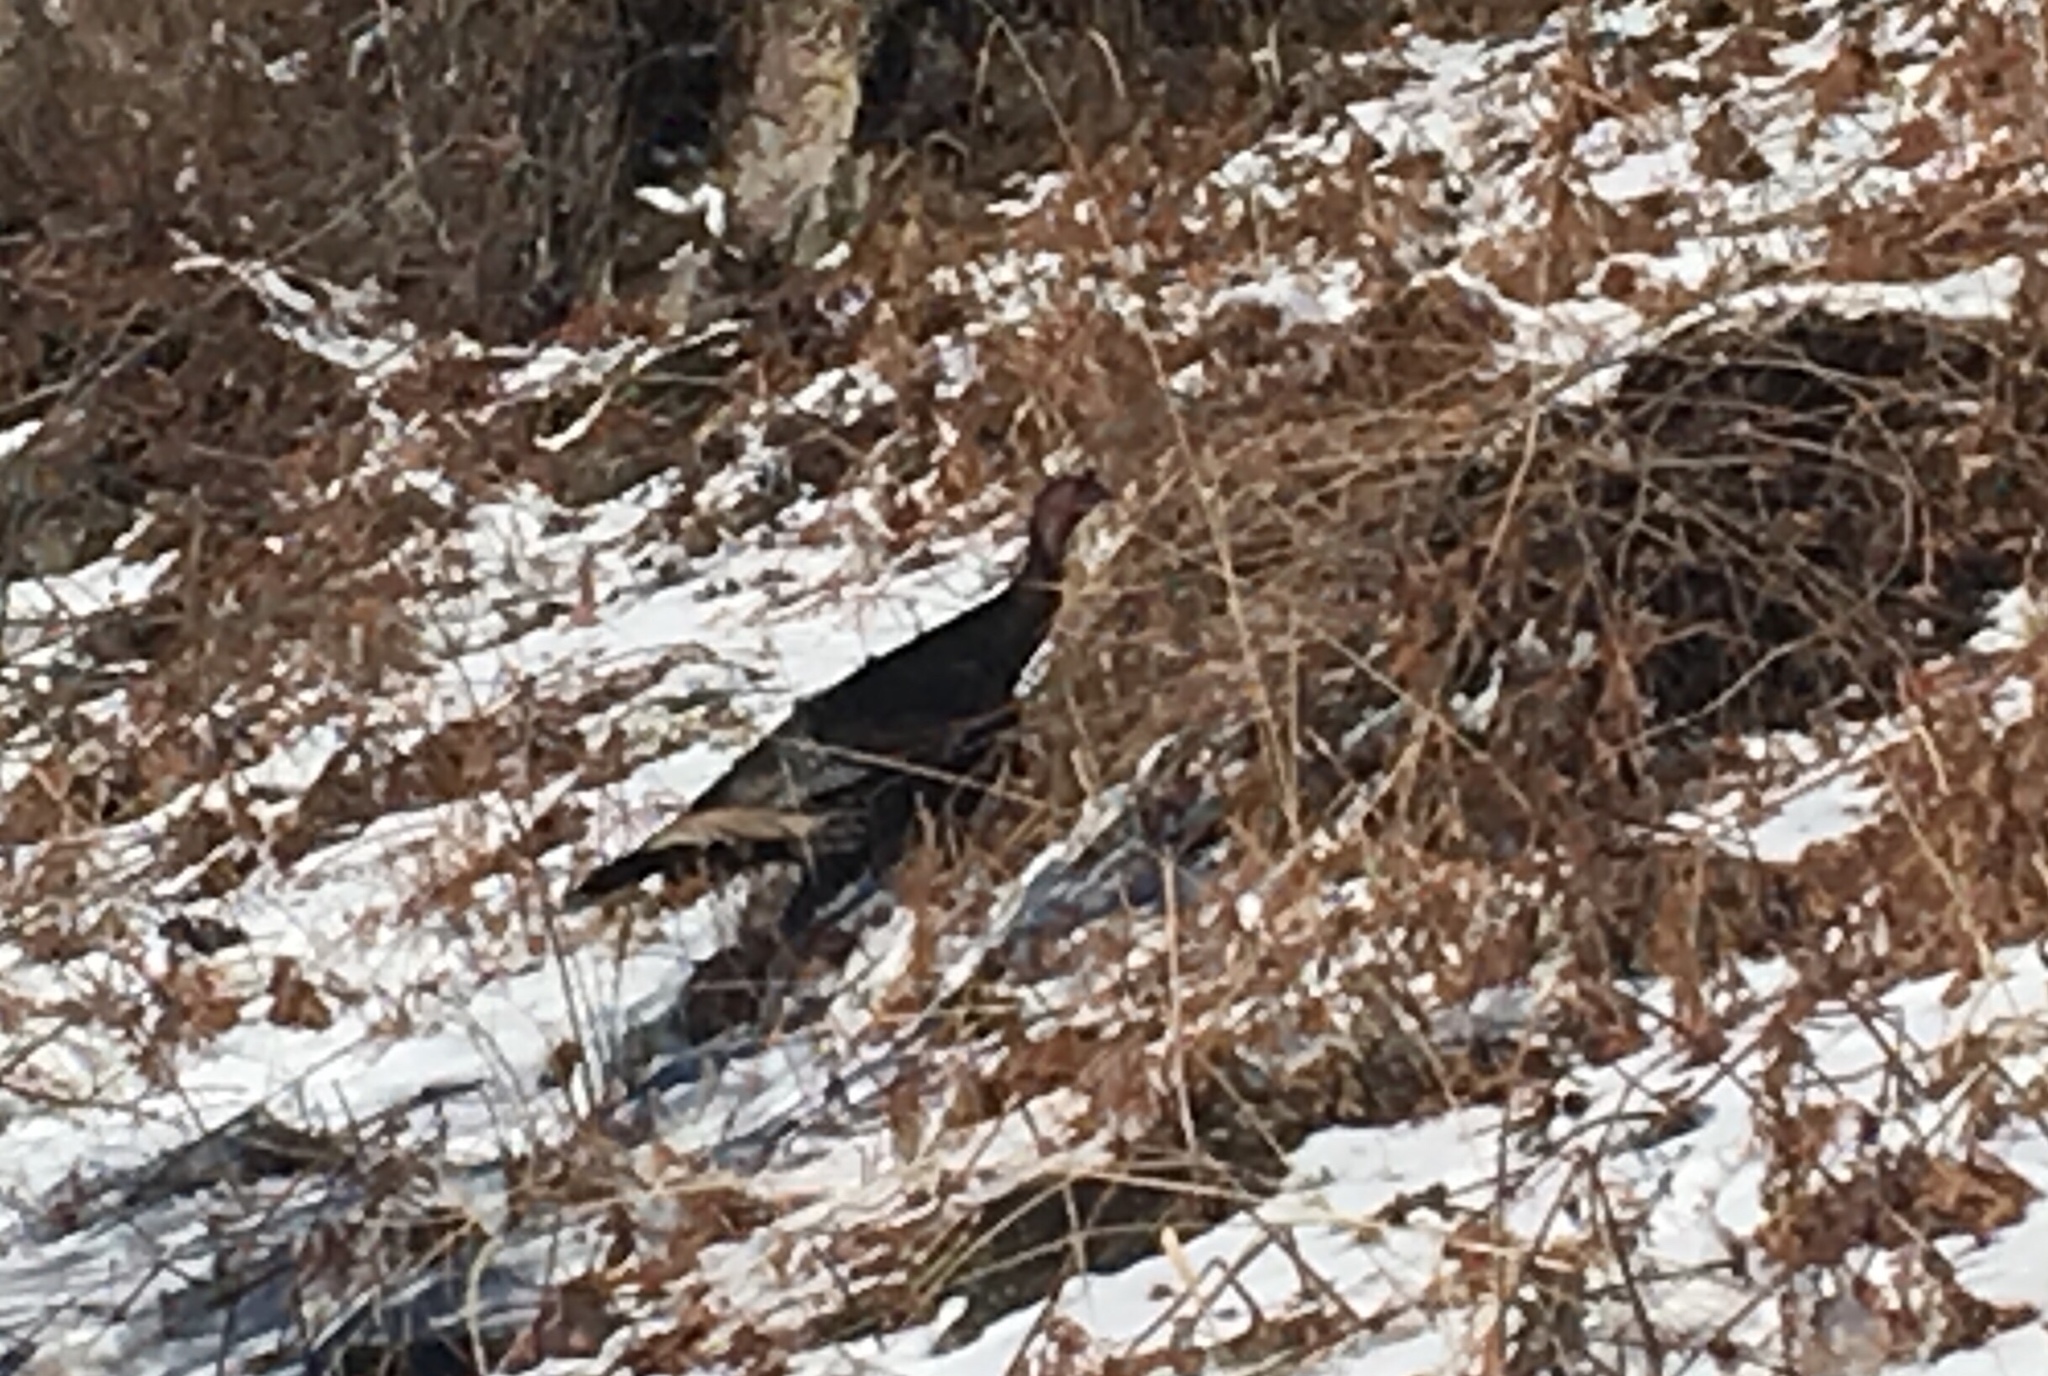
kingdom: Animalia
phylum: Chordata
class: Aves
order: Galliformes
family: Phasianidae
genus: Meleagris
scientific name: Meleagris gallopavo
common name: Wild turkey
